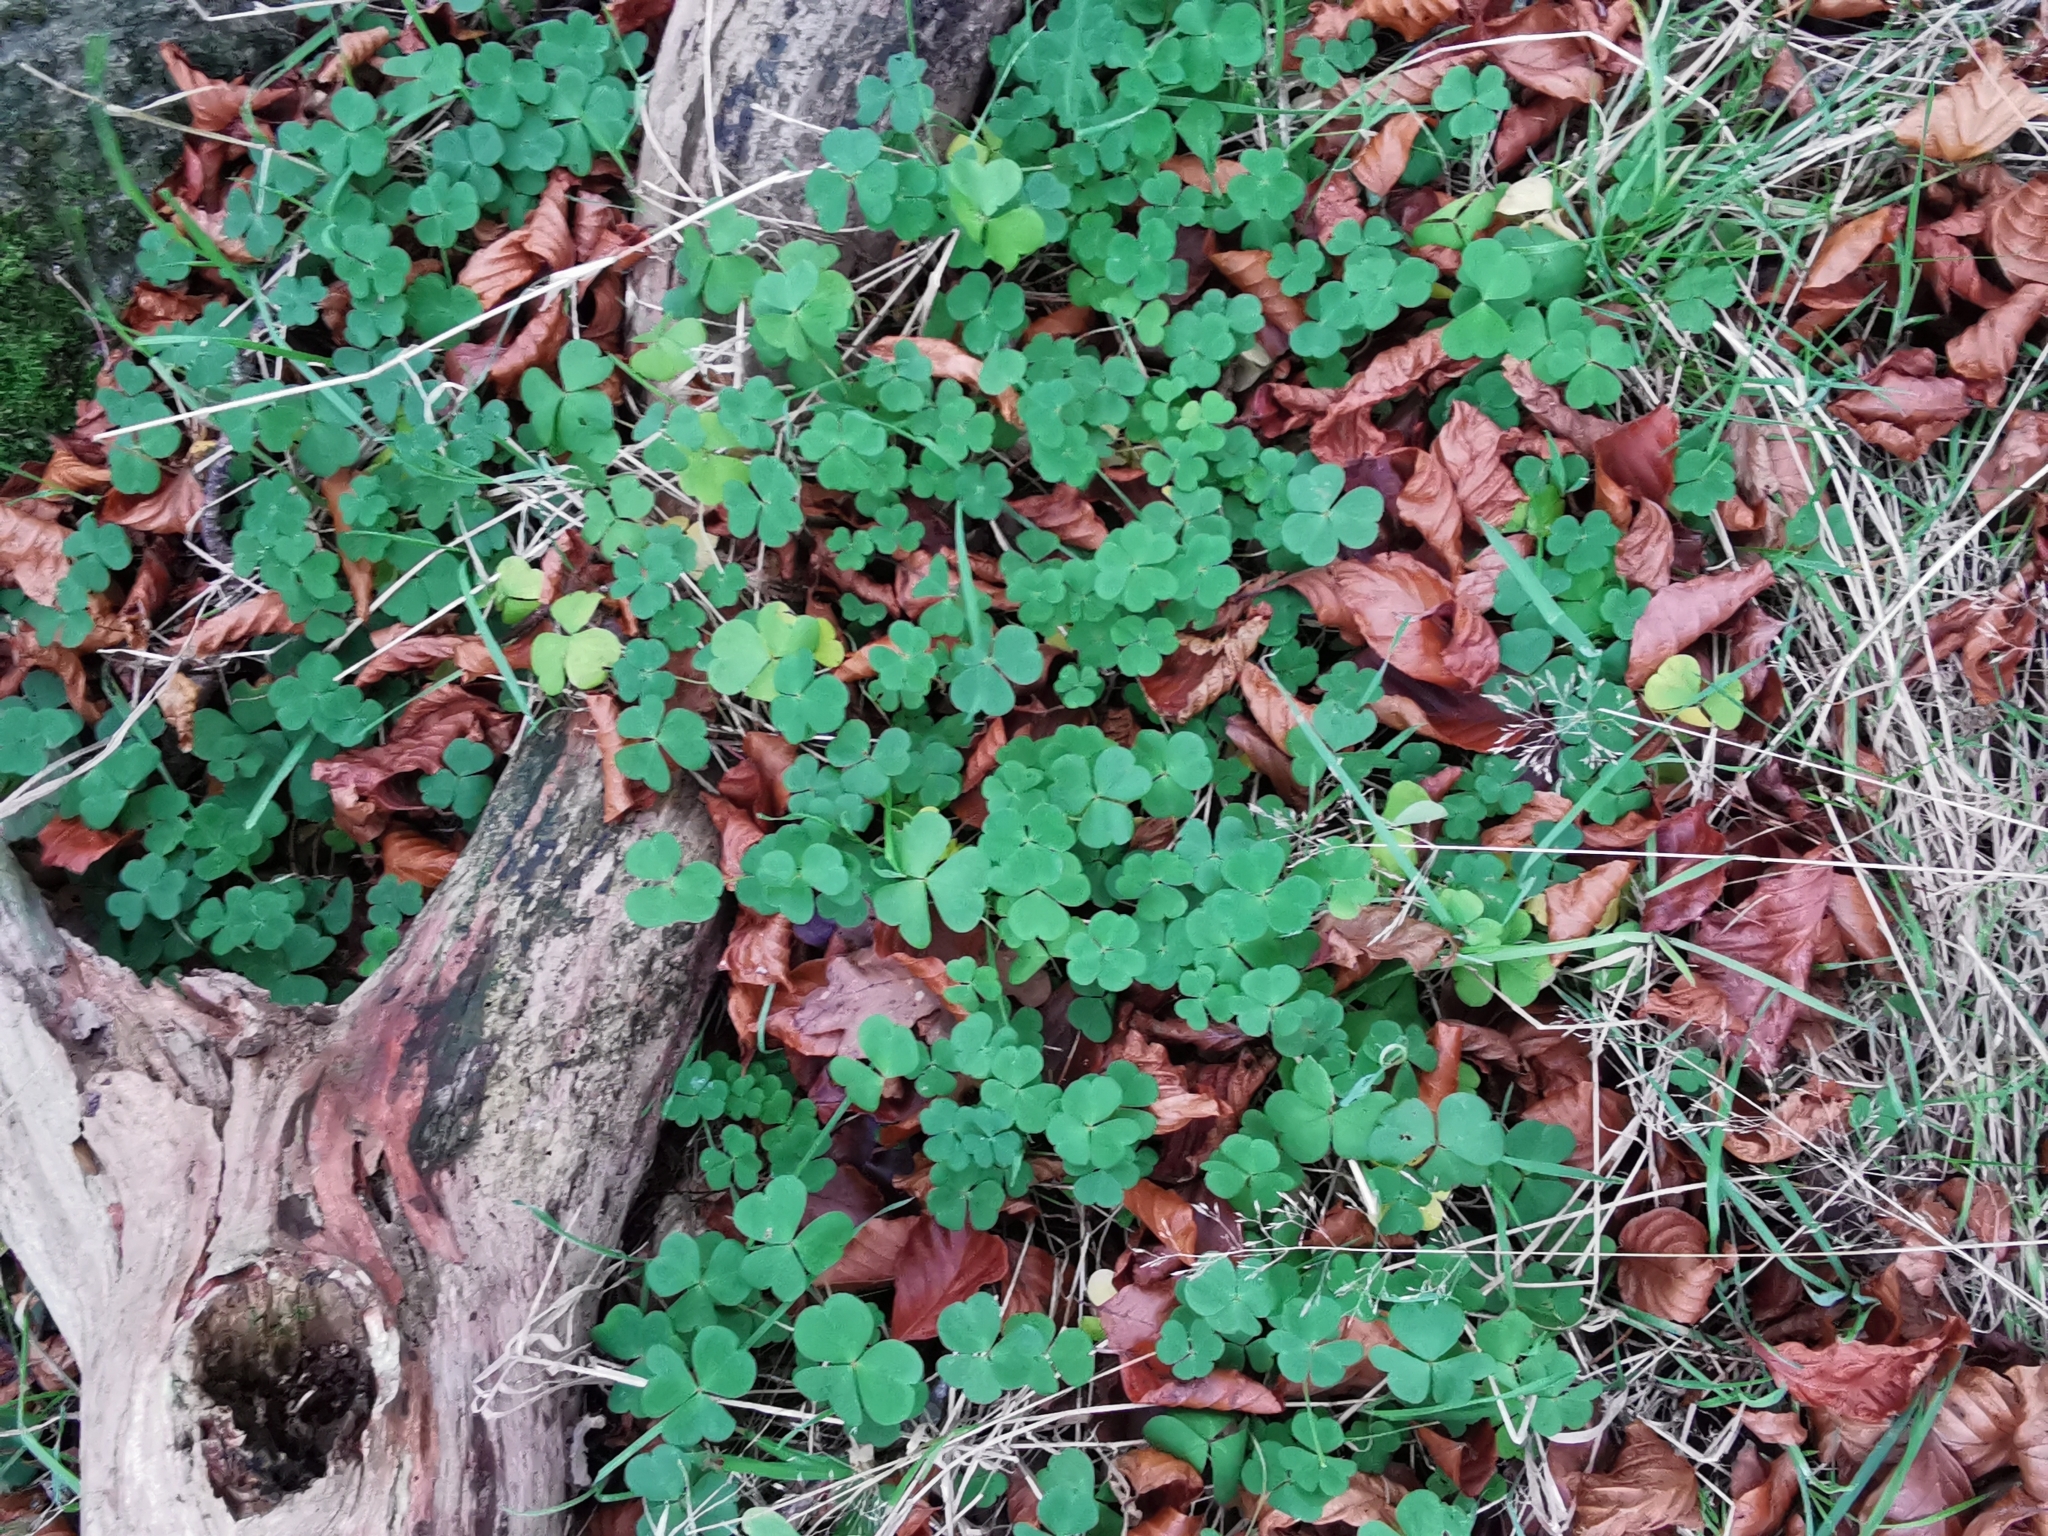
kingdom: Plantae
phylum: Tracheophyta
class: Magnoliopsida
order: Oxalidales
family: Oxalidaceae
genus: Oxalis
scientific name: Oxalis acetosella
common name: Wood-sorrel
